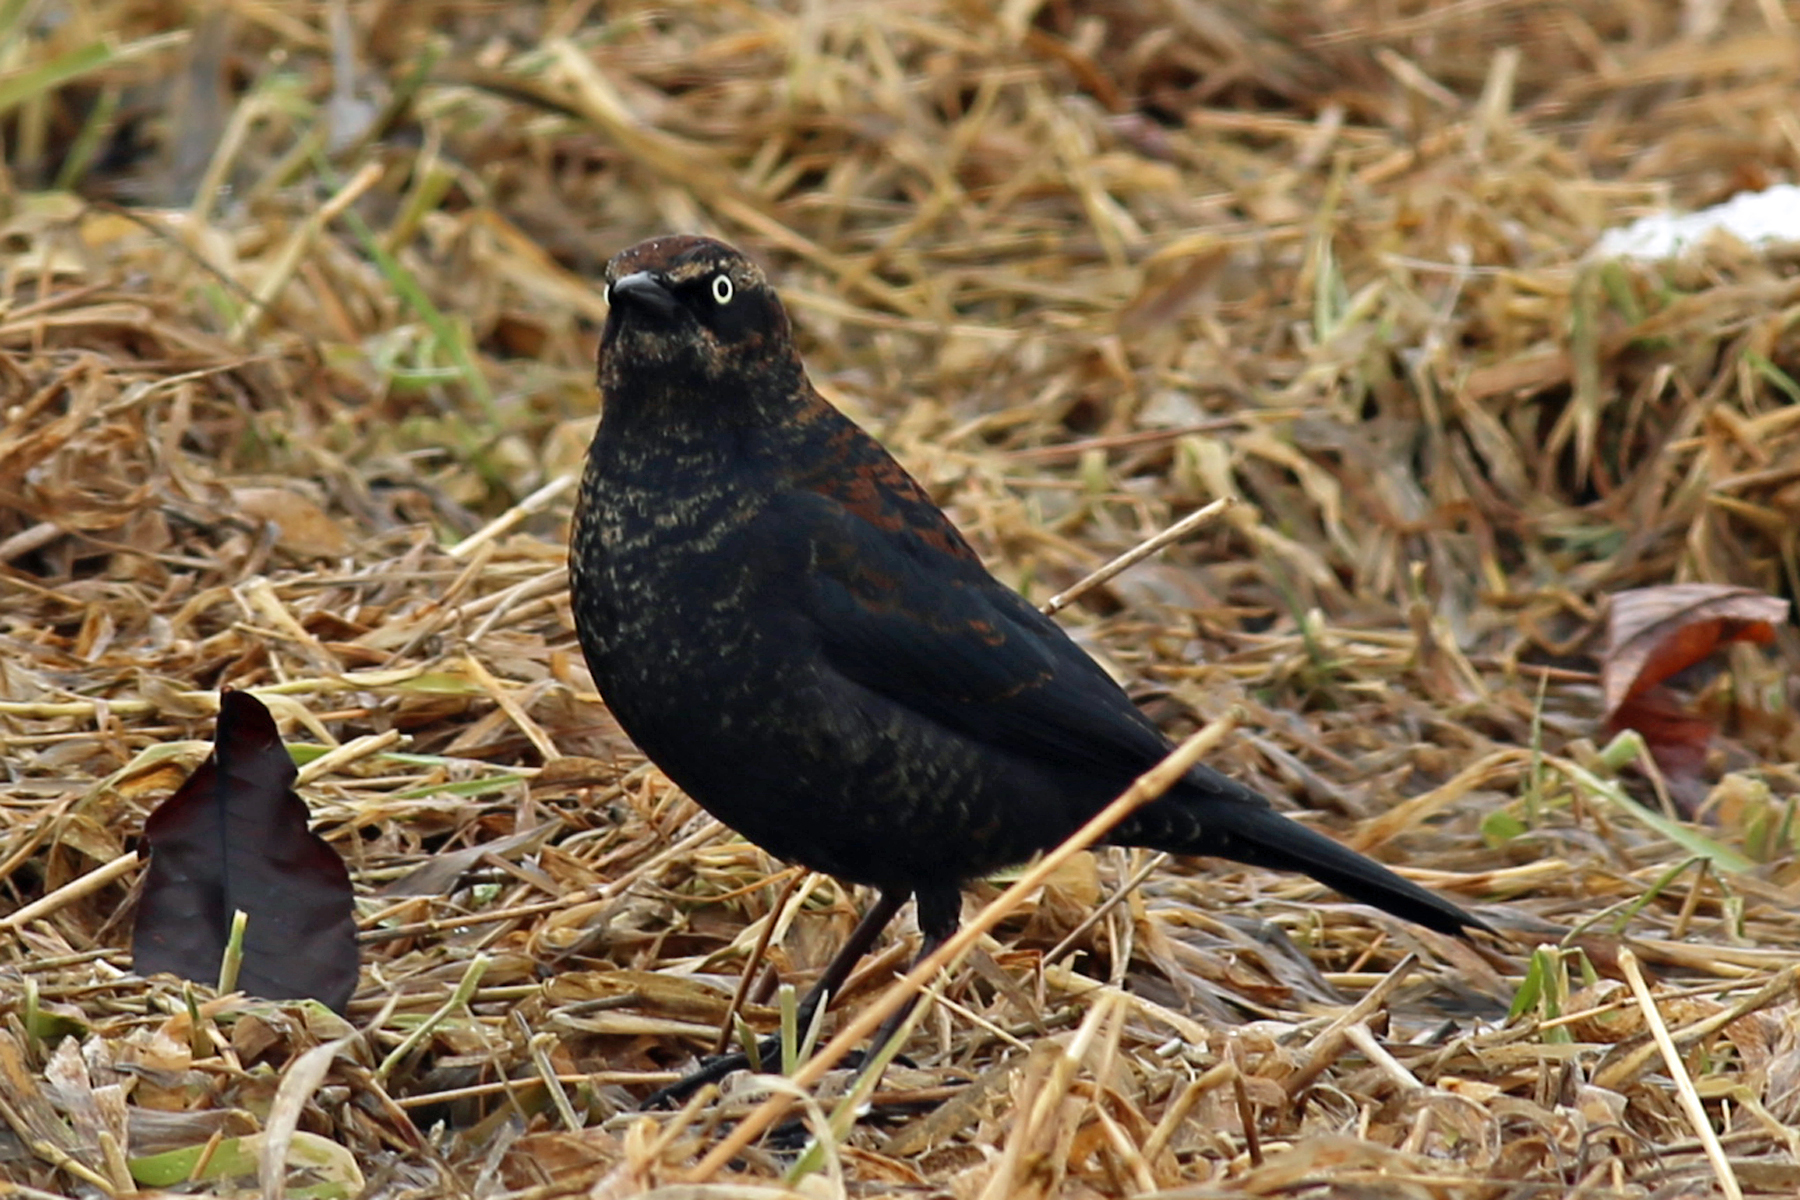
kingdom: Animalia
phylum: Chordata
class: Aves
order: Passeriformes
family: Icteridae
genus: Euphagus
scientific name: Euphagus carolinus
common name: Rusty blackbird
